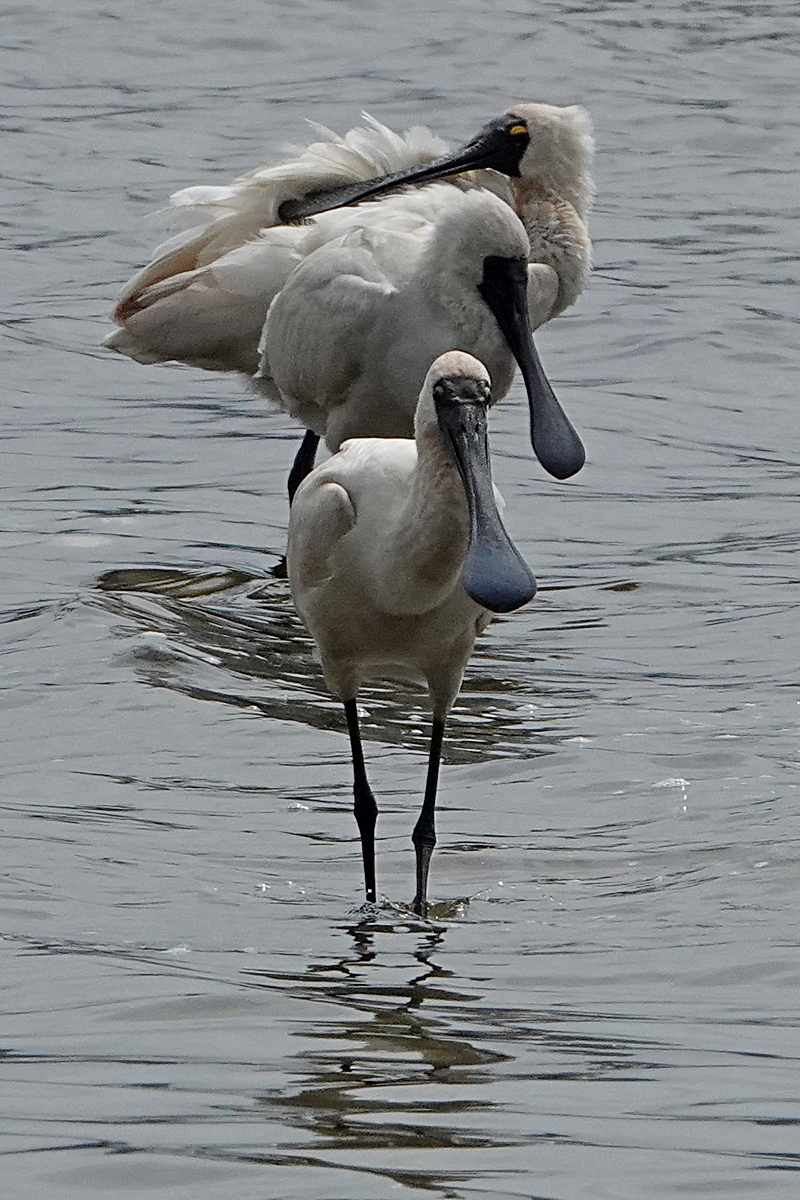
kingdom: Animalia
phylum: Chordata
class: Aves
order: Pelecaniformes
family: Threskiornithidae
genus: Platalea
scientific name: Platalea regia
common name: Royal spoonbill
